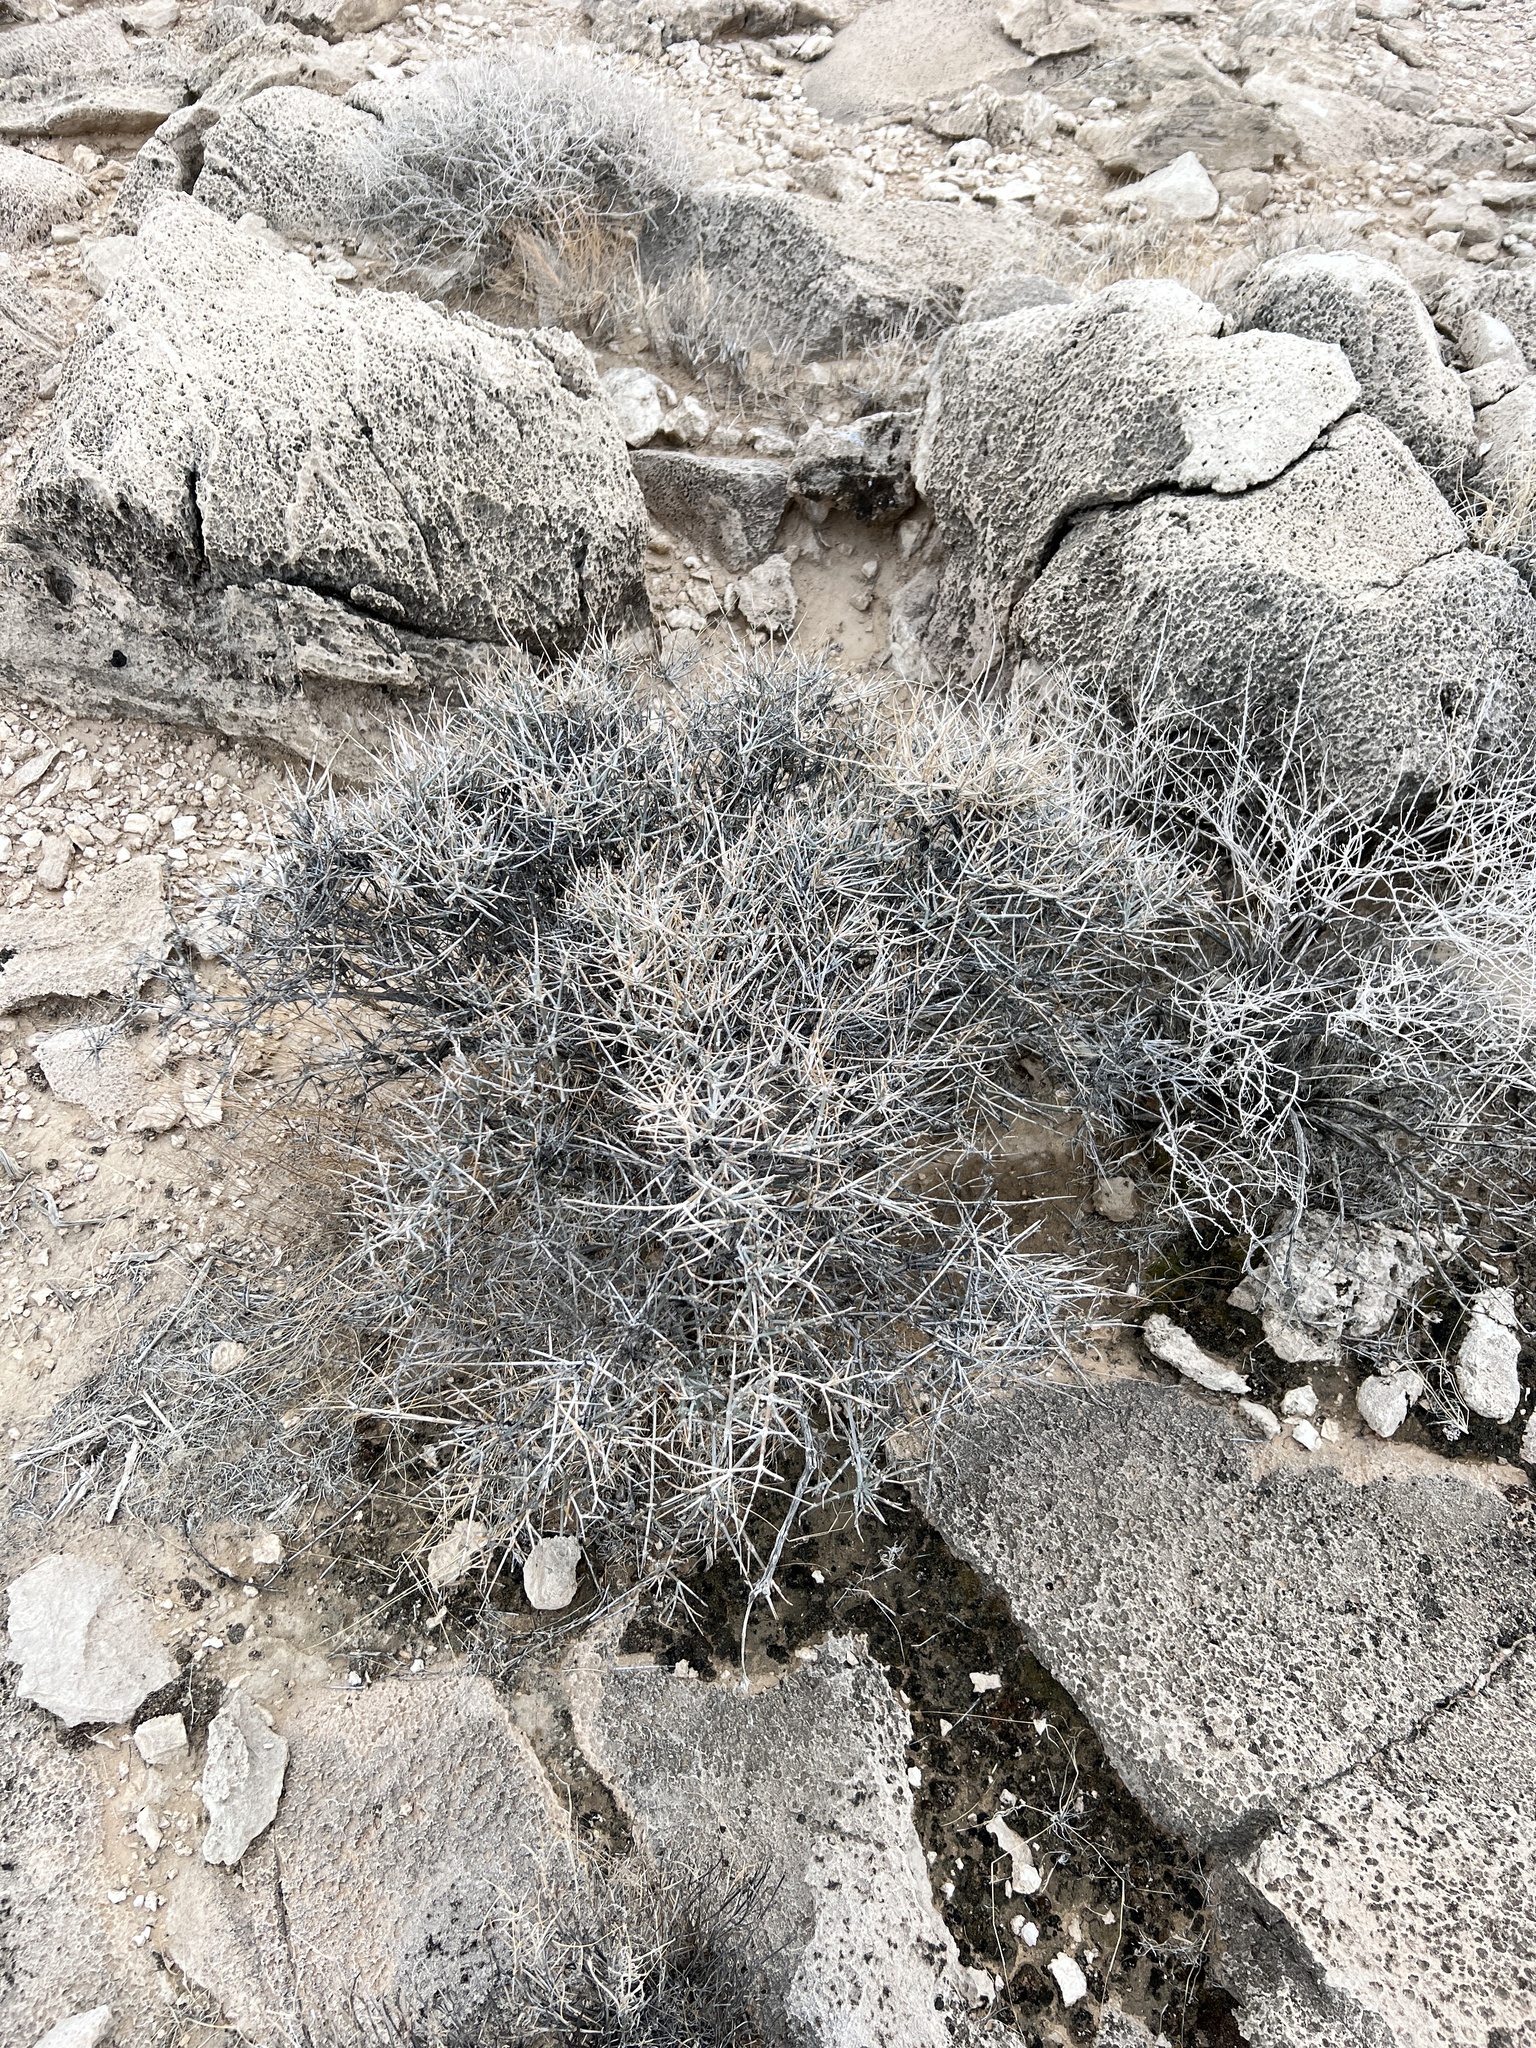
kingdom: Plantae
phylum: Tracheophyta
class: Gnetopsida
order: Ephedrales
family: Ephedraceae
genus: Ephedra
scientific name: Ephedra nevadensis
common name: Gray ephedra
